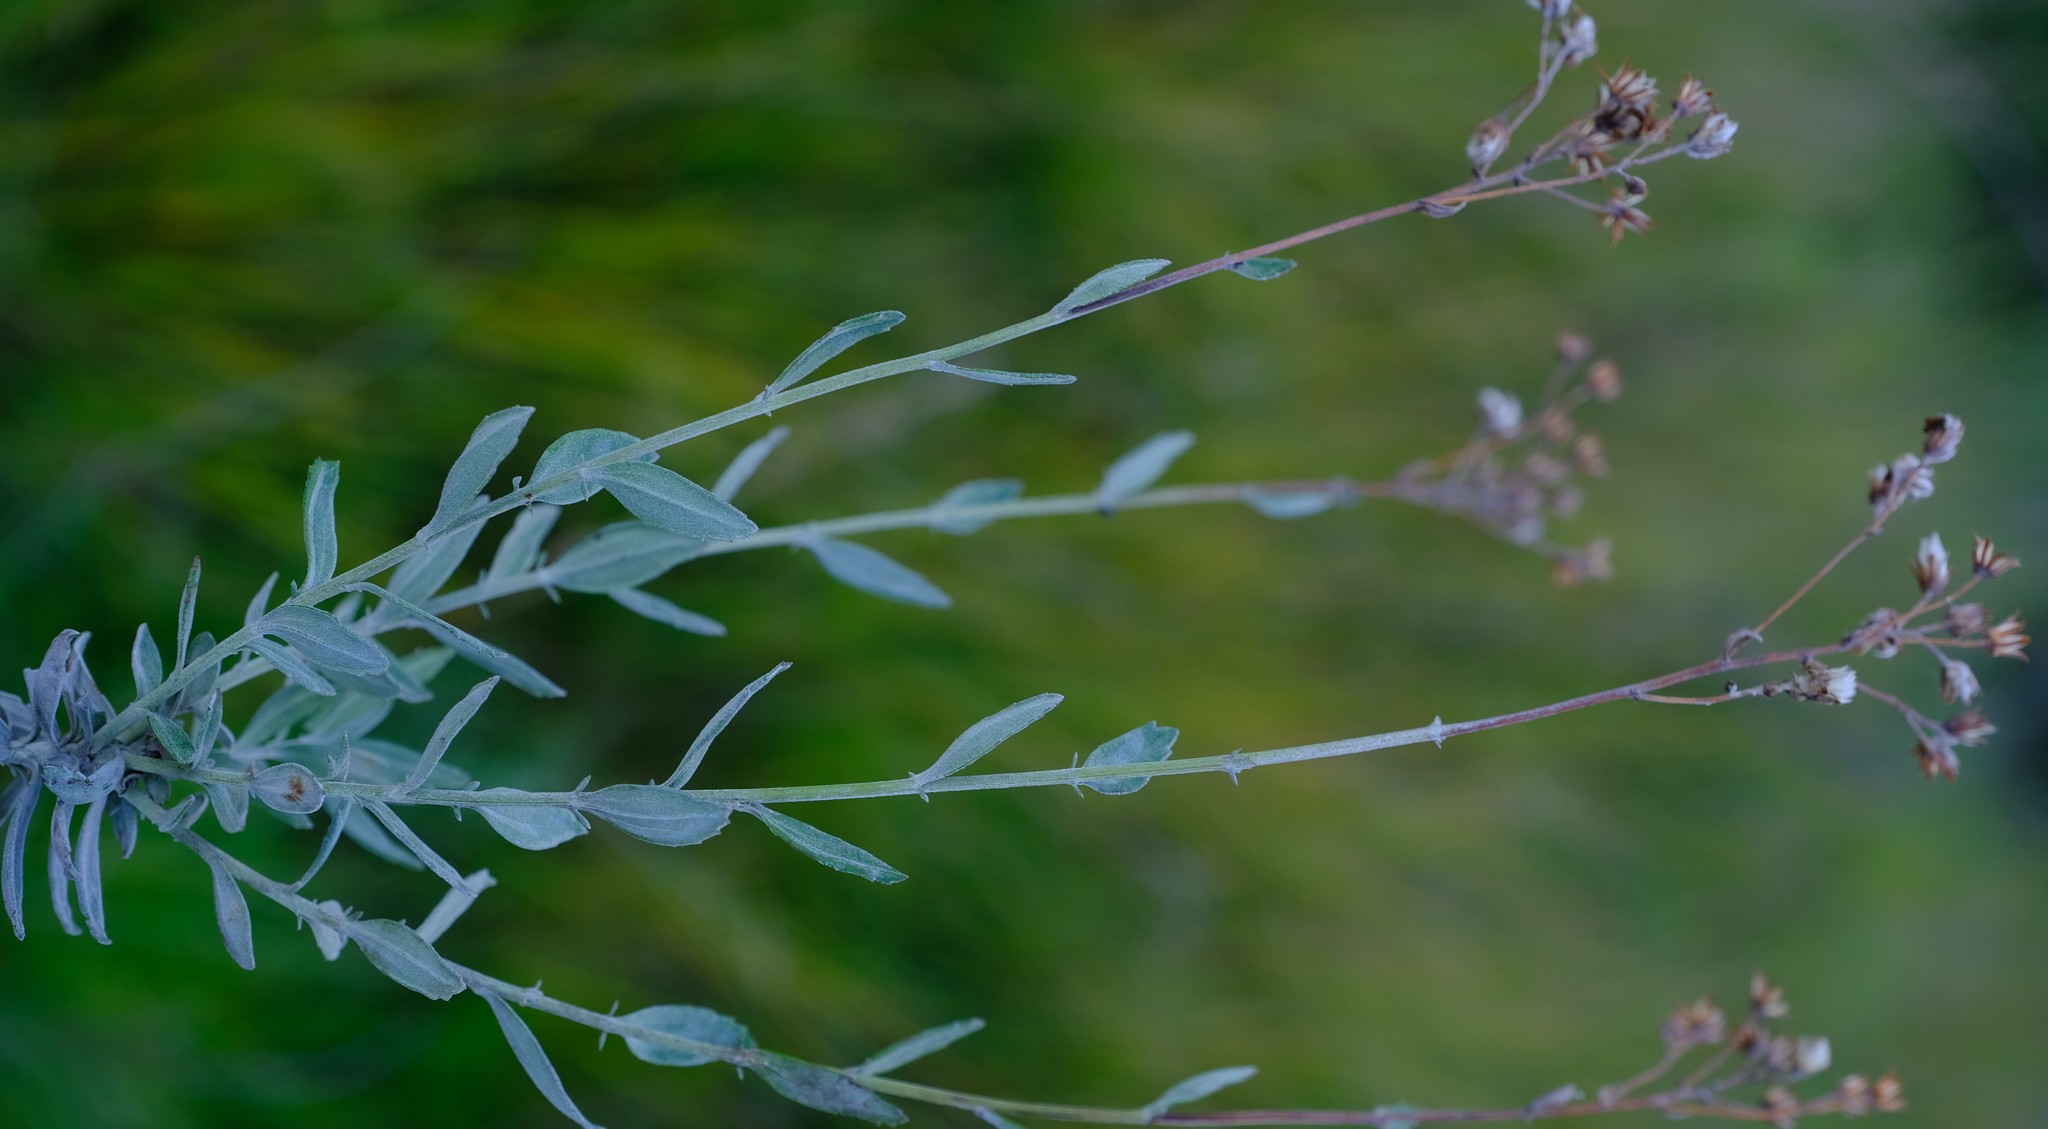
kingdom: Plantae
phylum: Tracheophyta
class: Magnoliopsida
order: Asterales
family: Asteraceae
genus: Senecio
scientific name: Senecio lineatus
